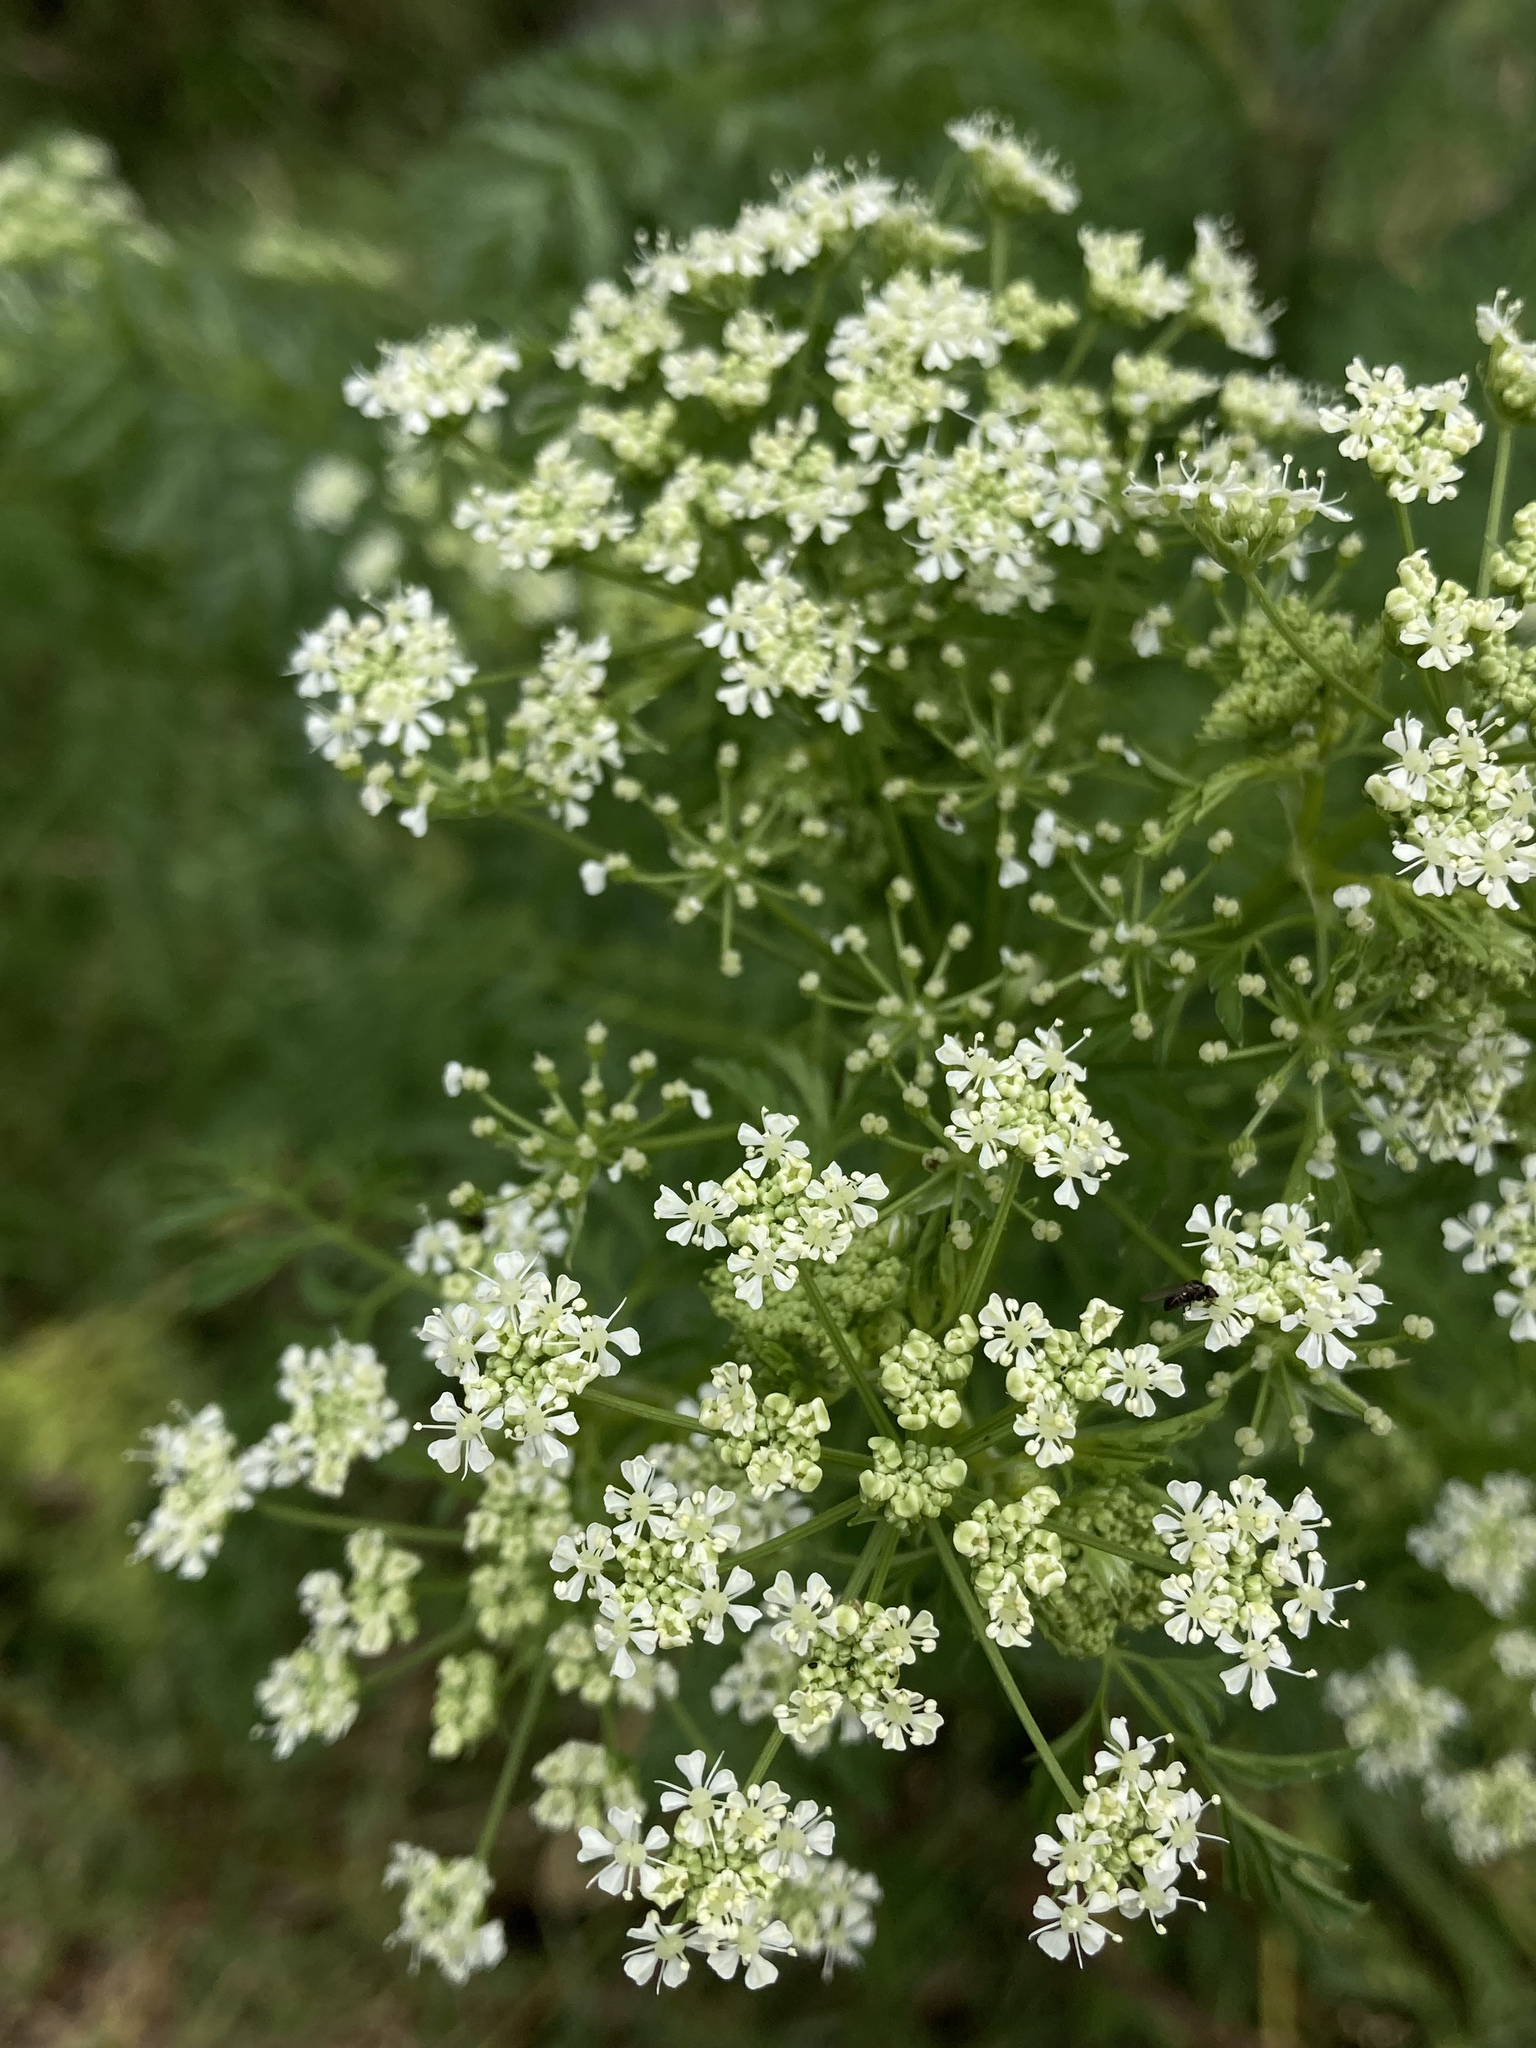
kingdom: Plantae
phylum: Tracheophyta
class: Magnoliopsida
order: Apiales
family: Apiaceae
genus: Conium
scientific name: Conium maculatum
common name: Hemlock
